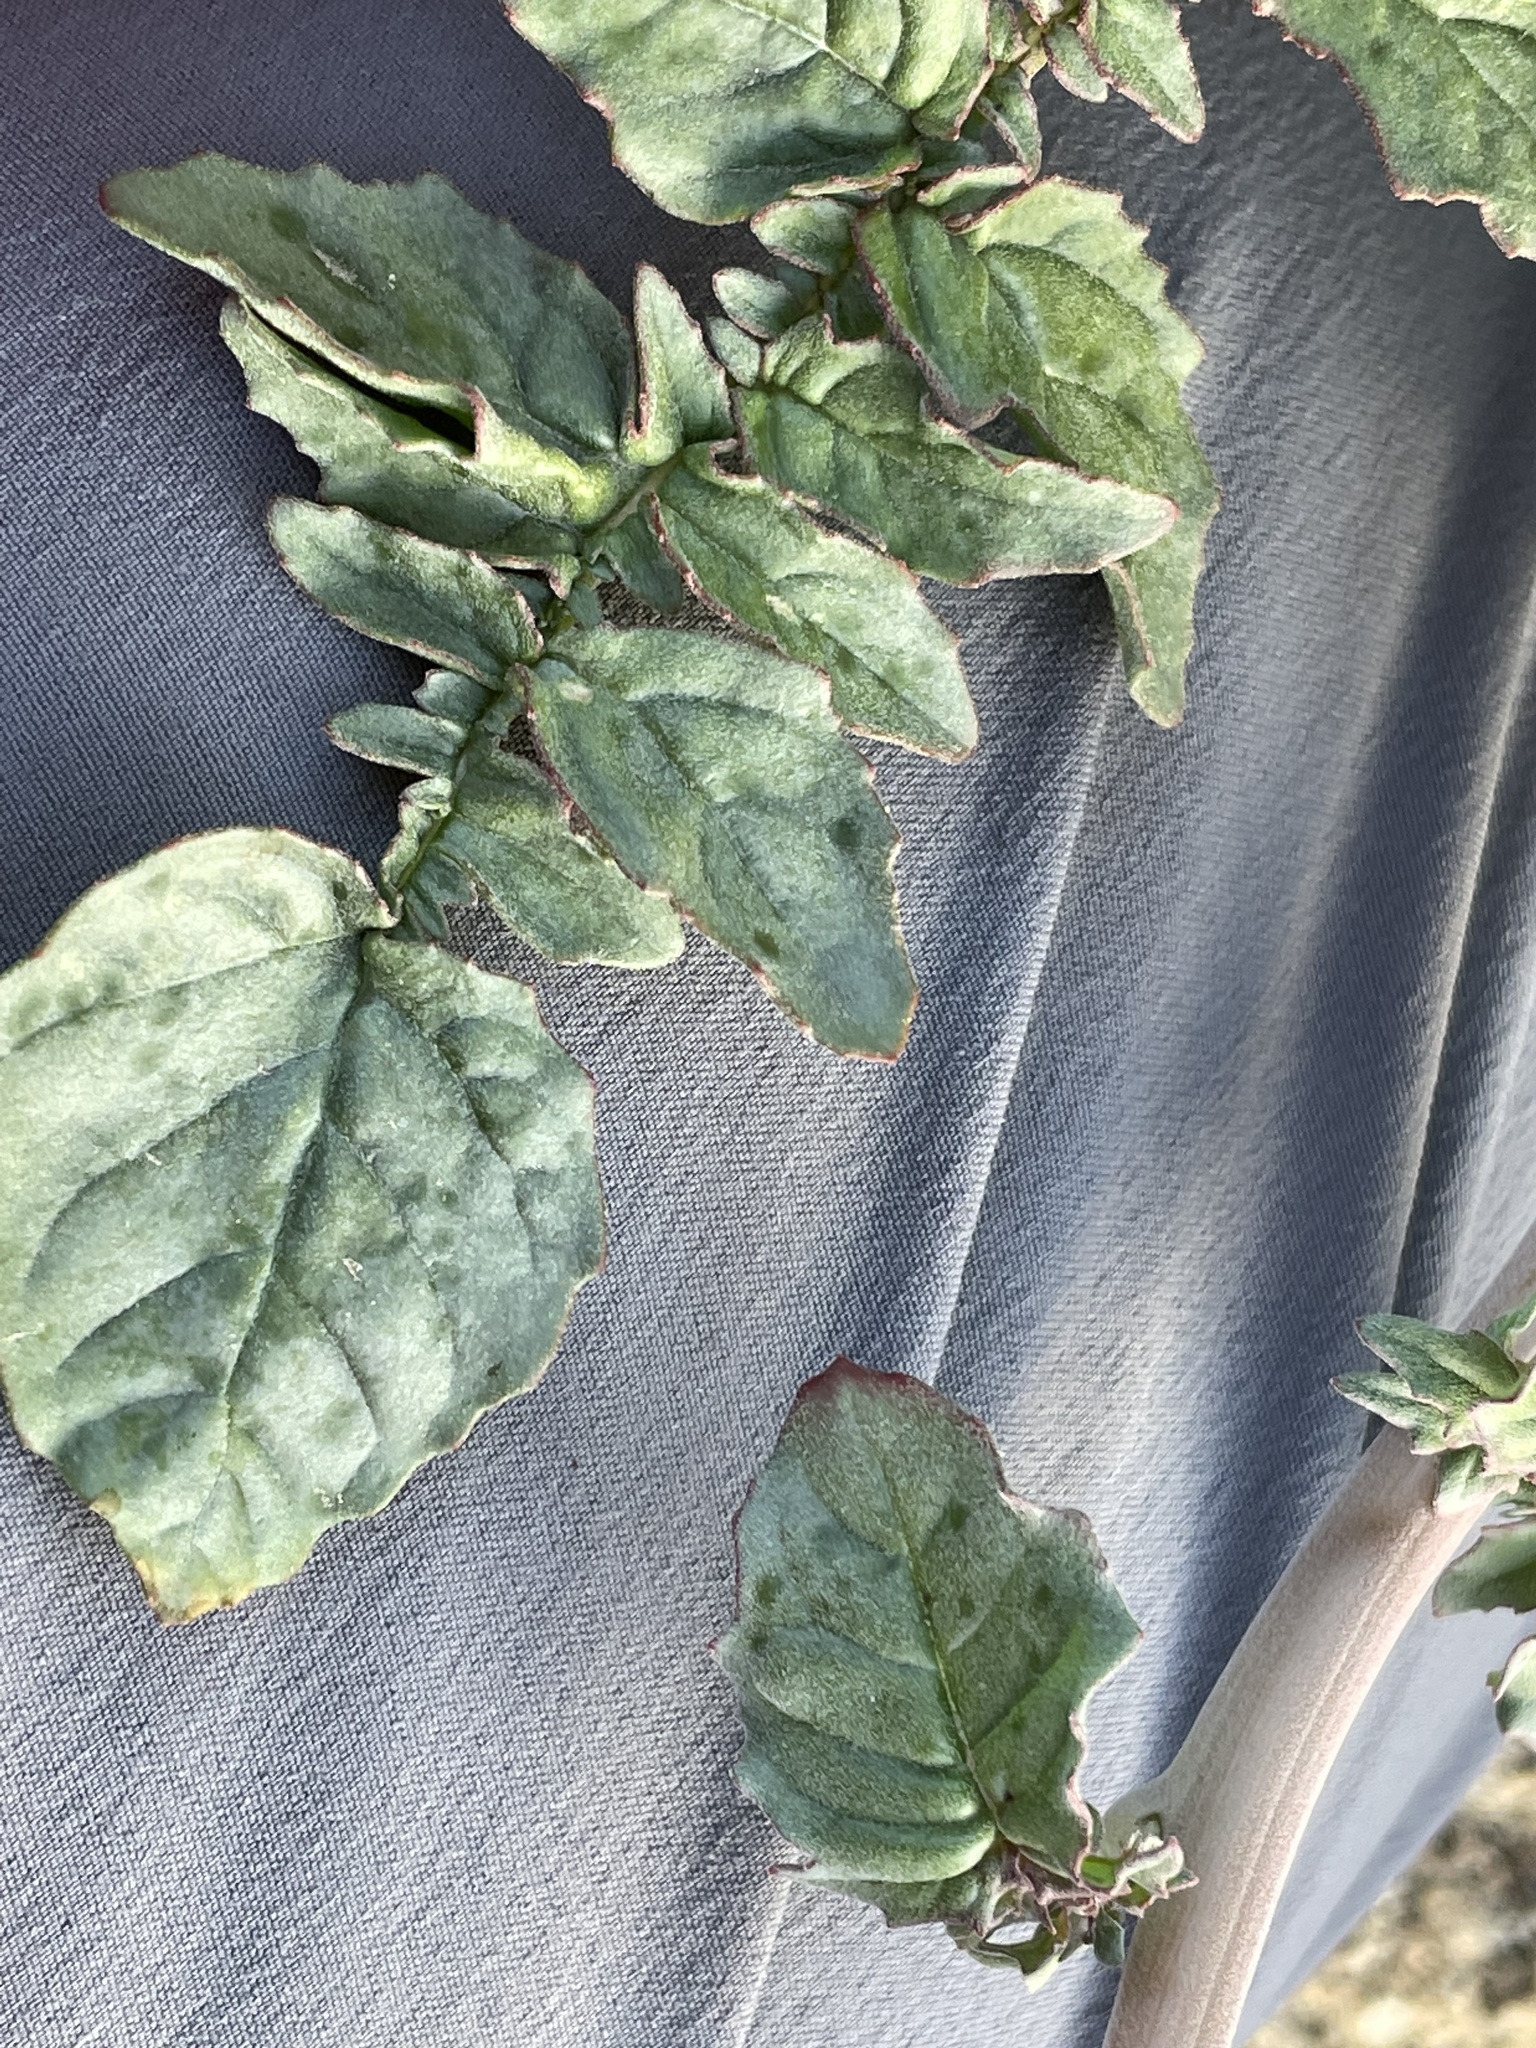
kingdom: Plantae
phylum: Tracheophyta
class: Magnoliopsida
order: Myrtales
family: Onagraceae
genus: Chylismia
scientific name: Chylismia claviformis
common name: Browneyes
